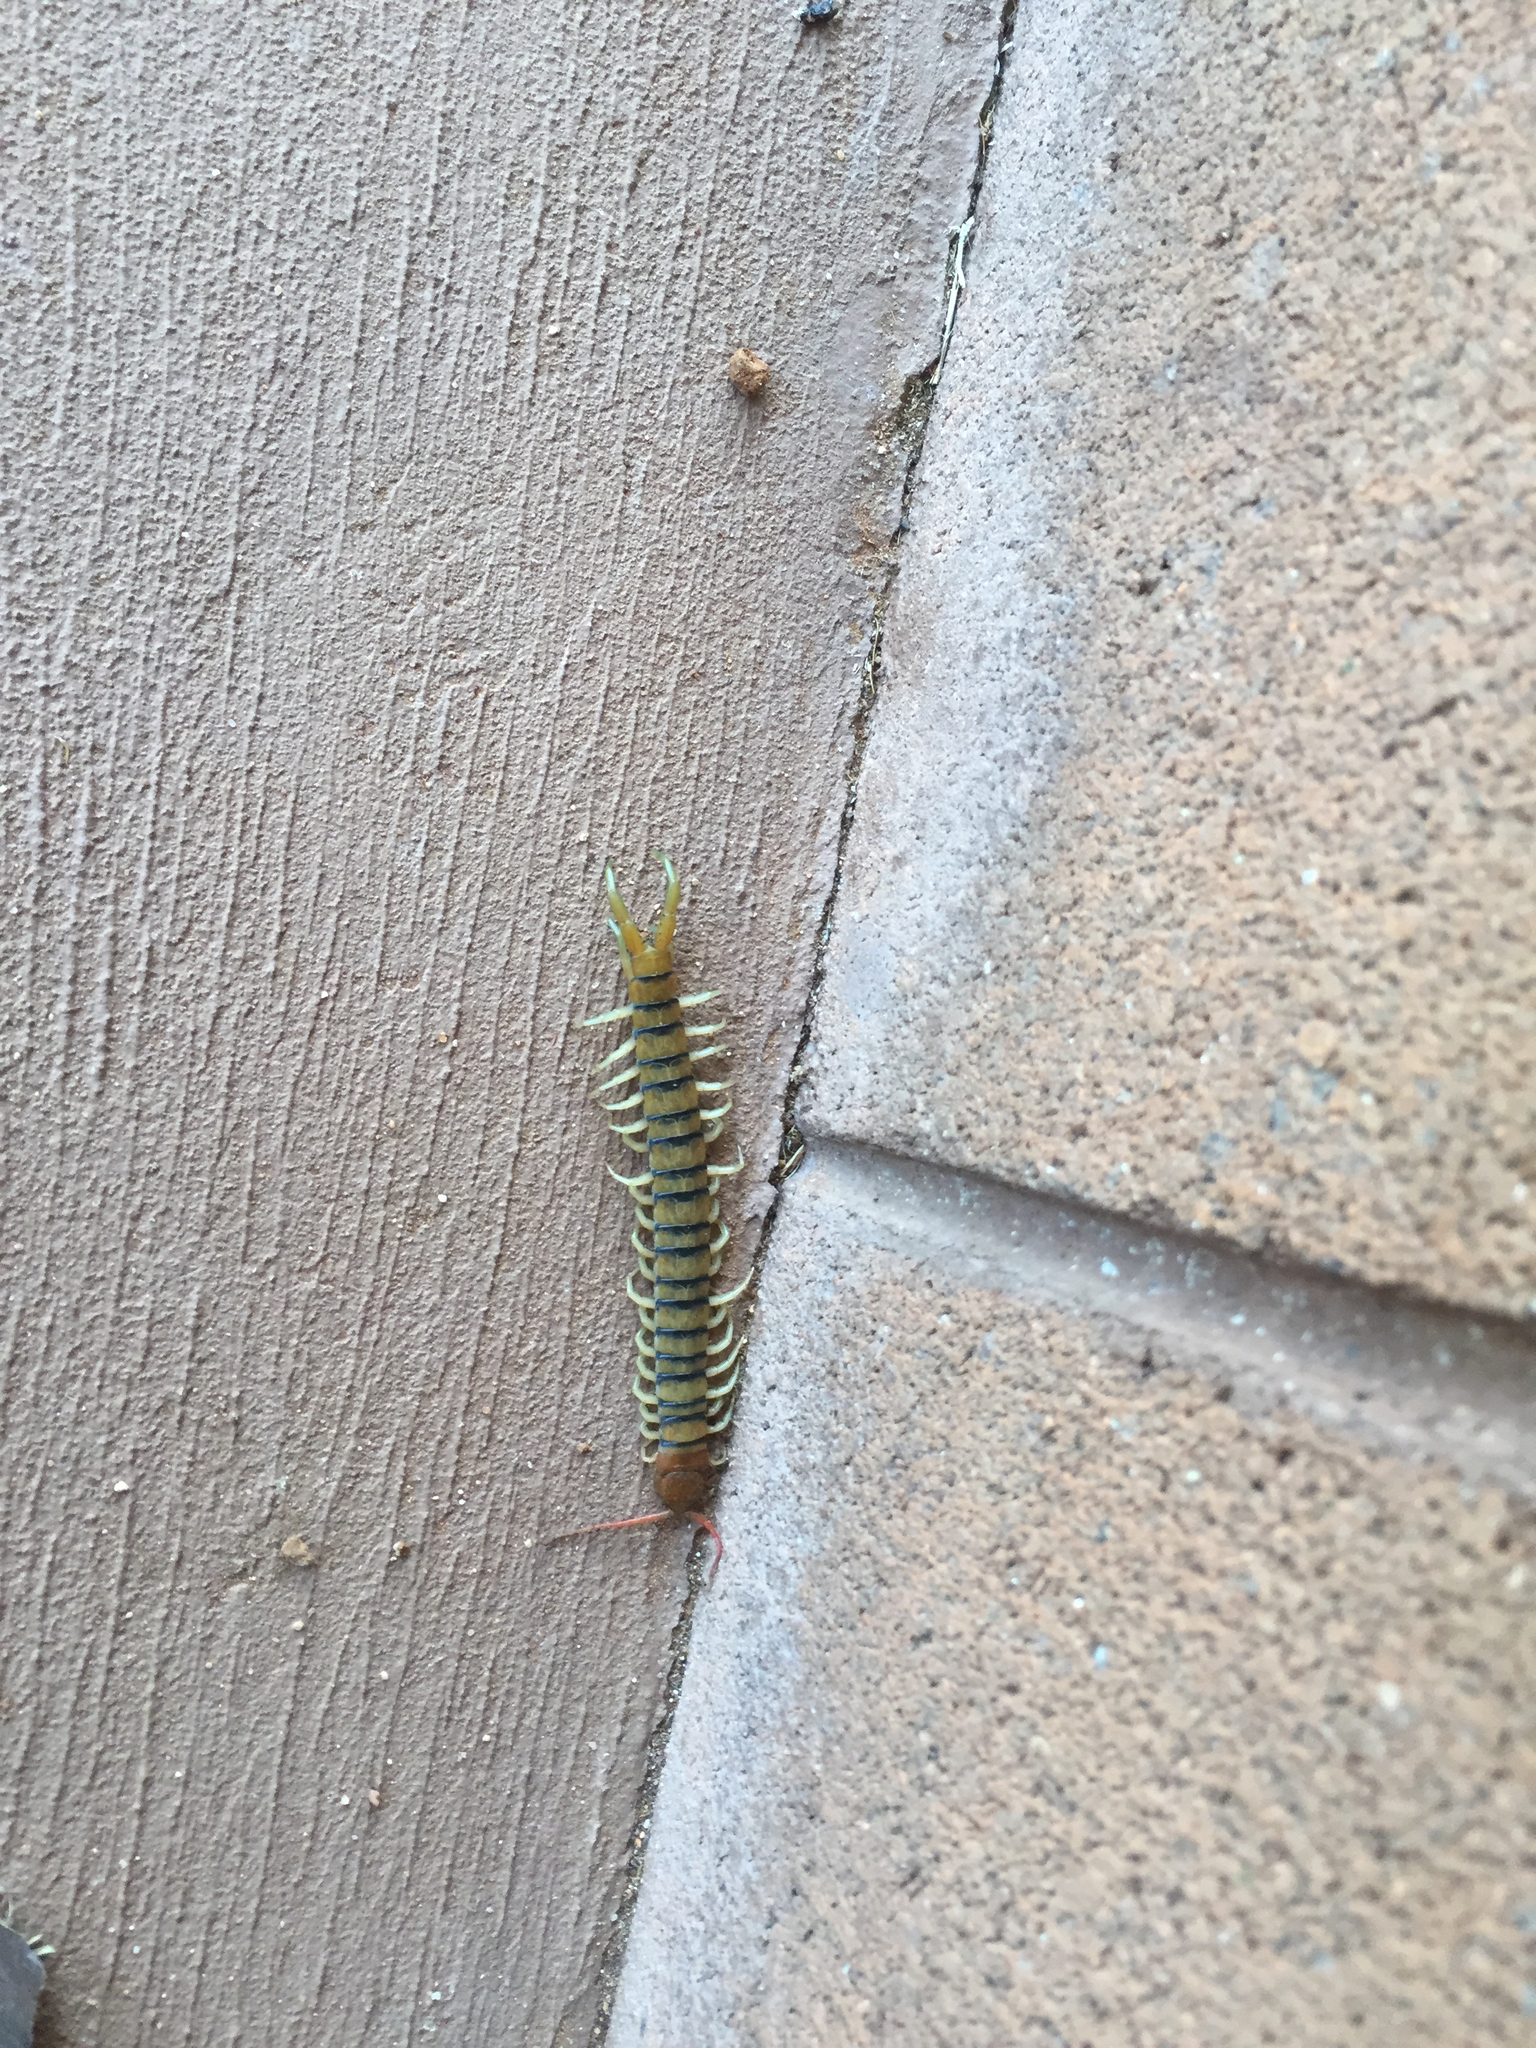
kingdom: Animalia
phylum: Arthropoda
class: Chilopoda
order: Scolopendromorpha
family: Scolopendridae
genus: Scolopendra
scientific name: Scolopendra morsitans
